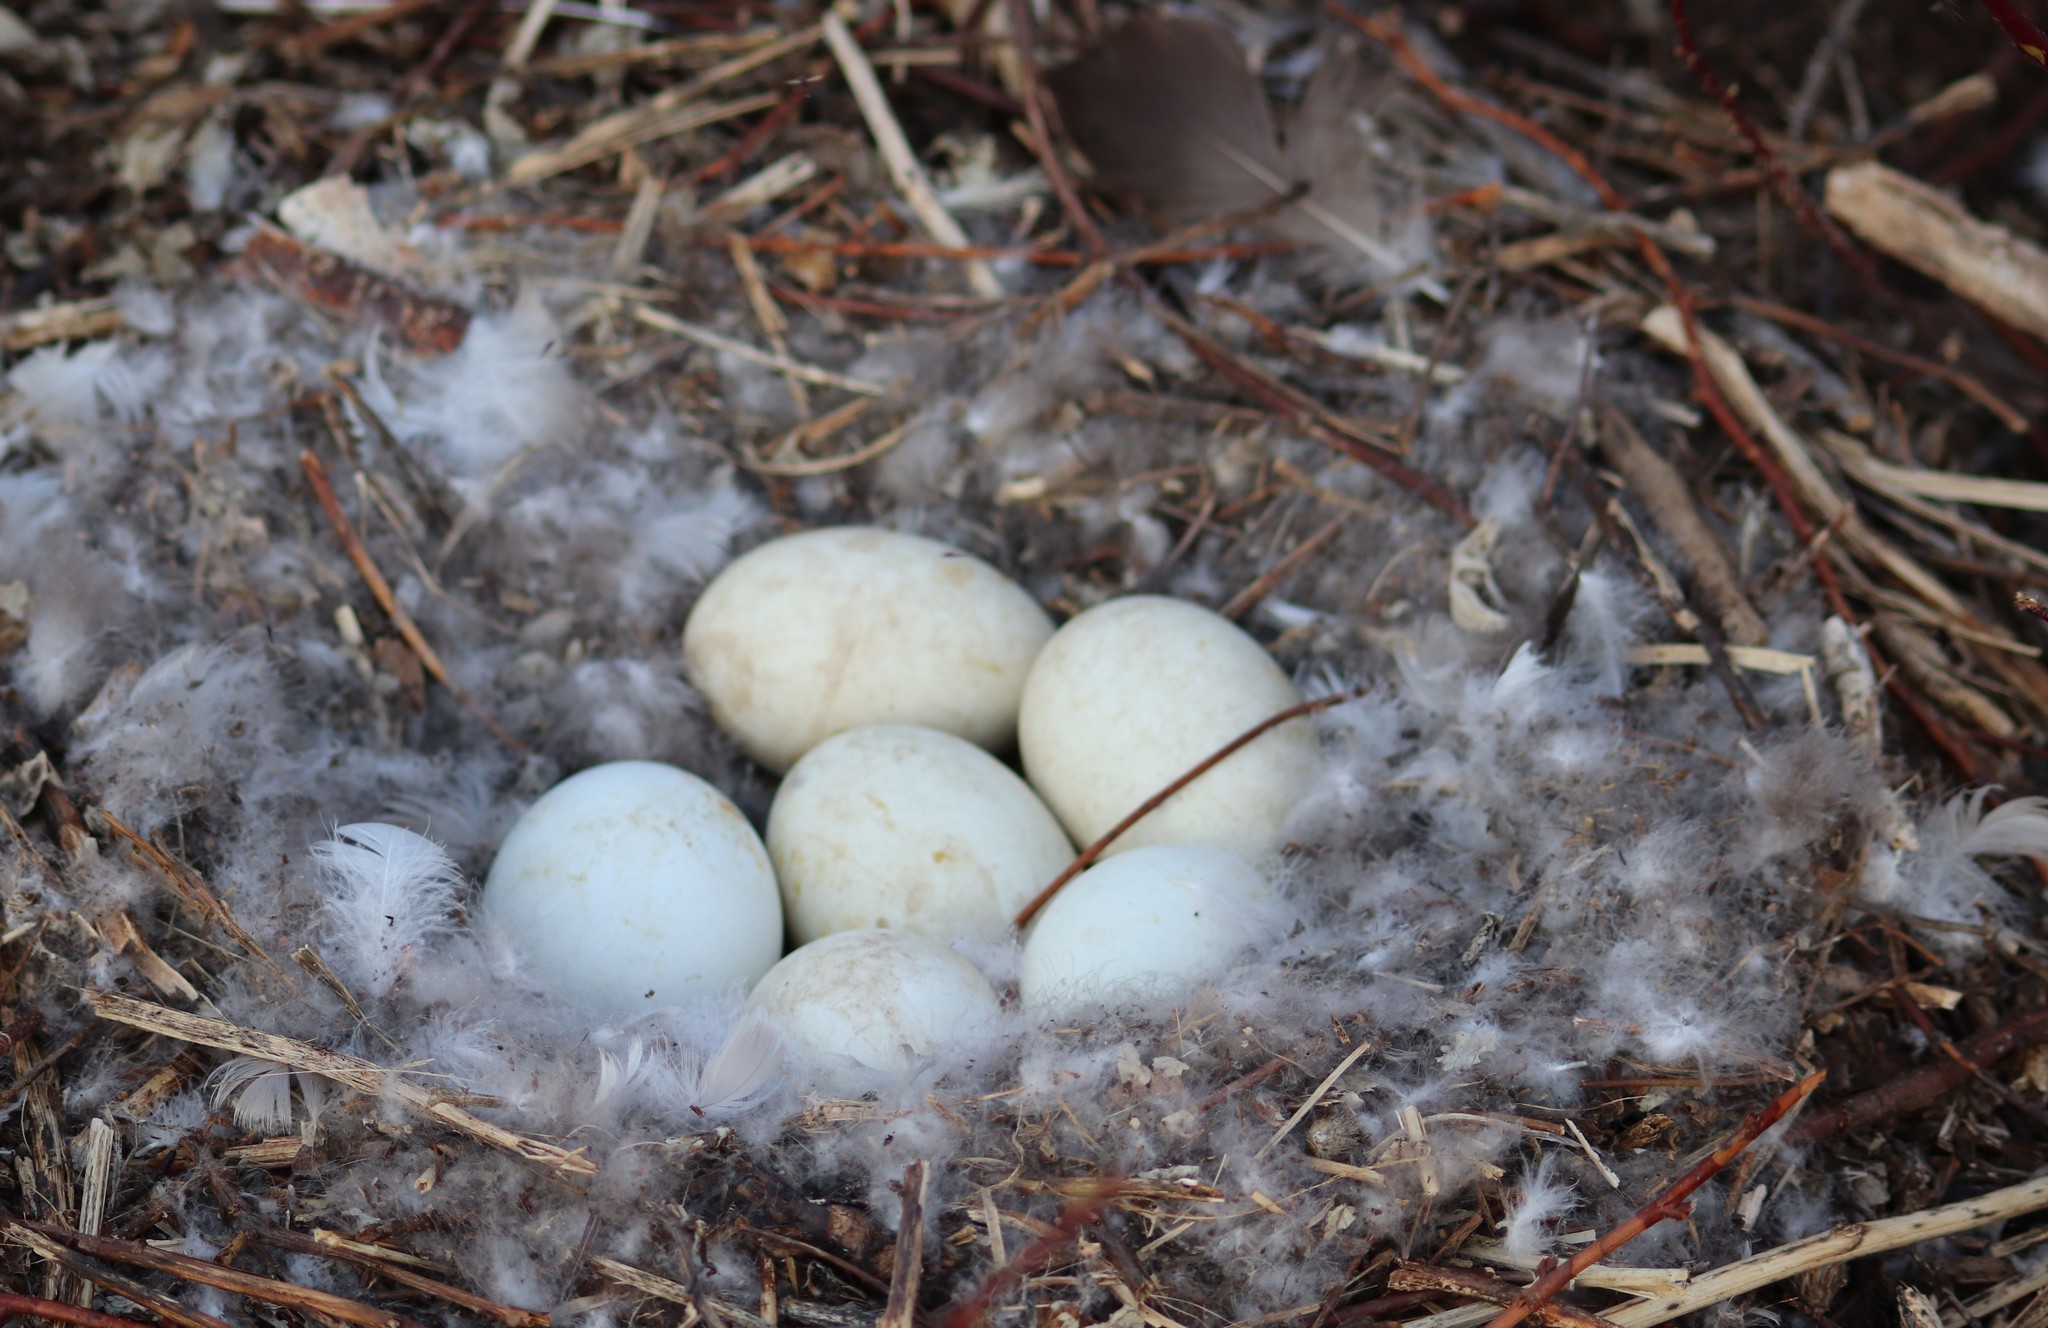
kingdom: Animalia
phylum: Chordata
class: Aves
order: Anseriformes
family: Anatidae
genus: Branta
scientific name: Branta canadensis
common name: Canada goose
